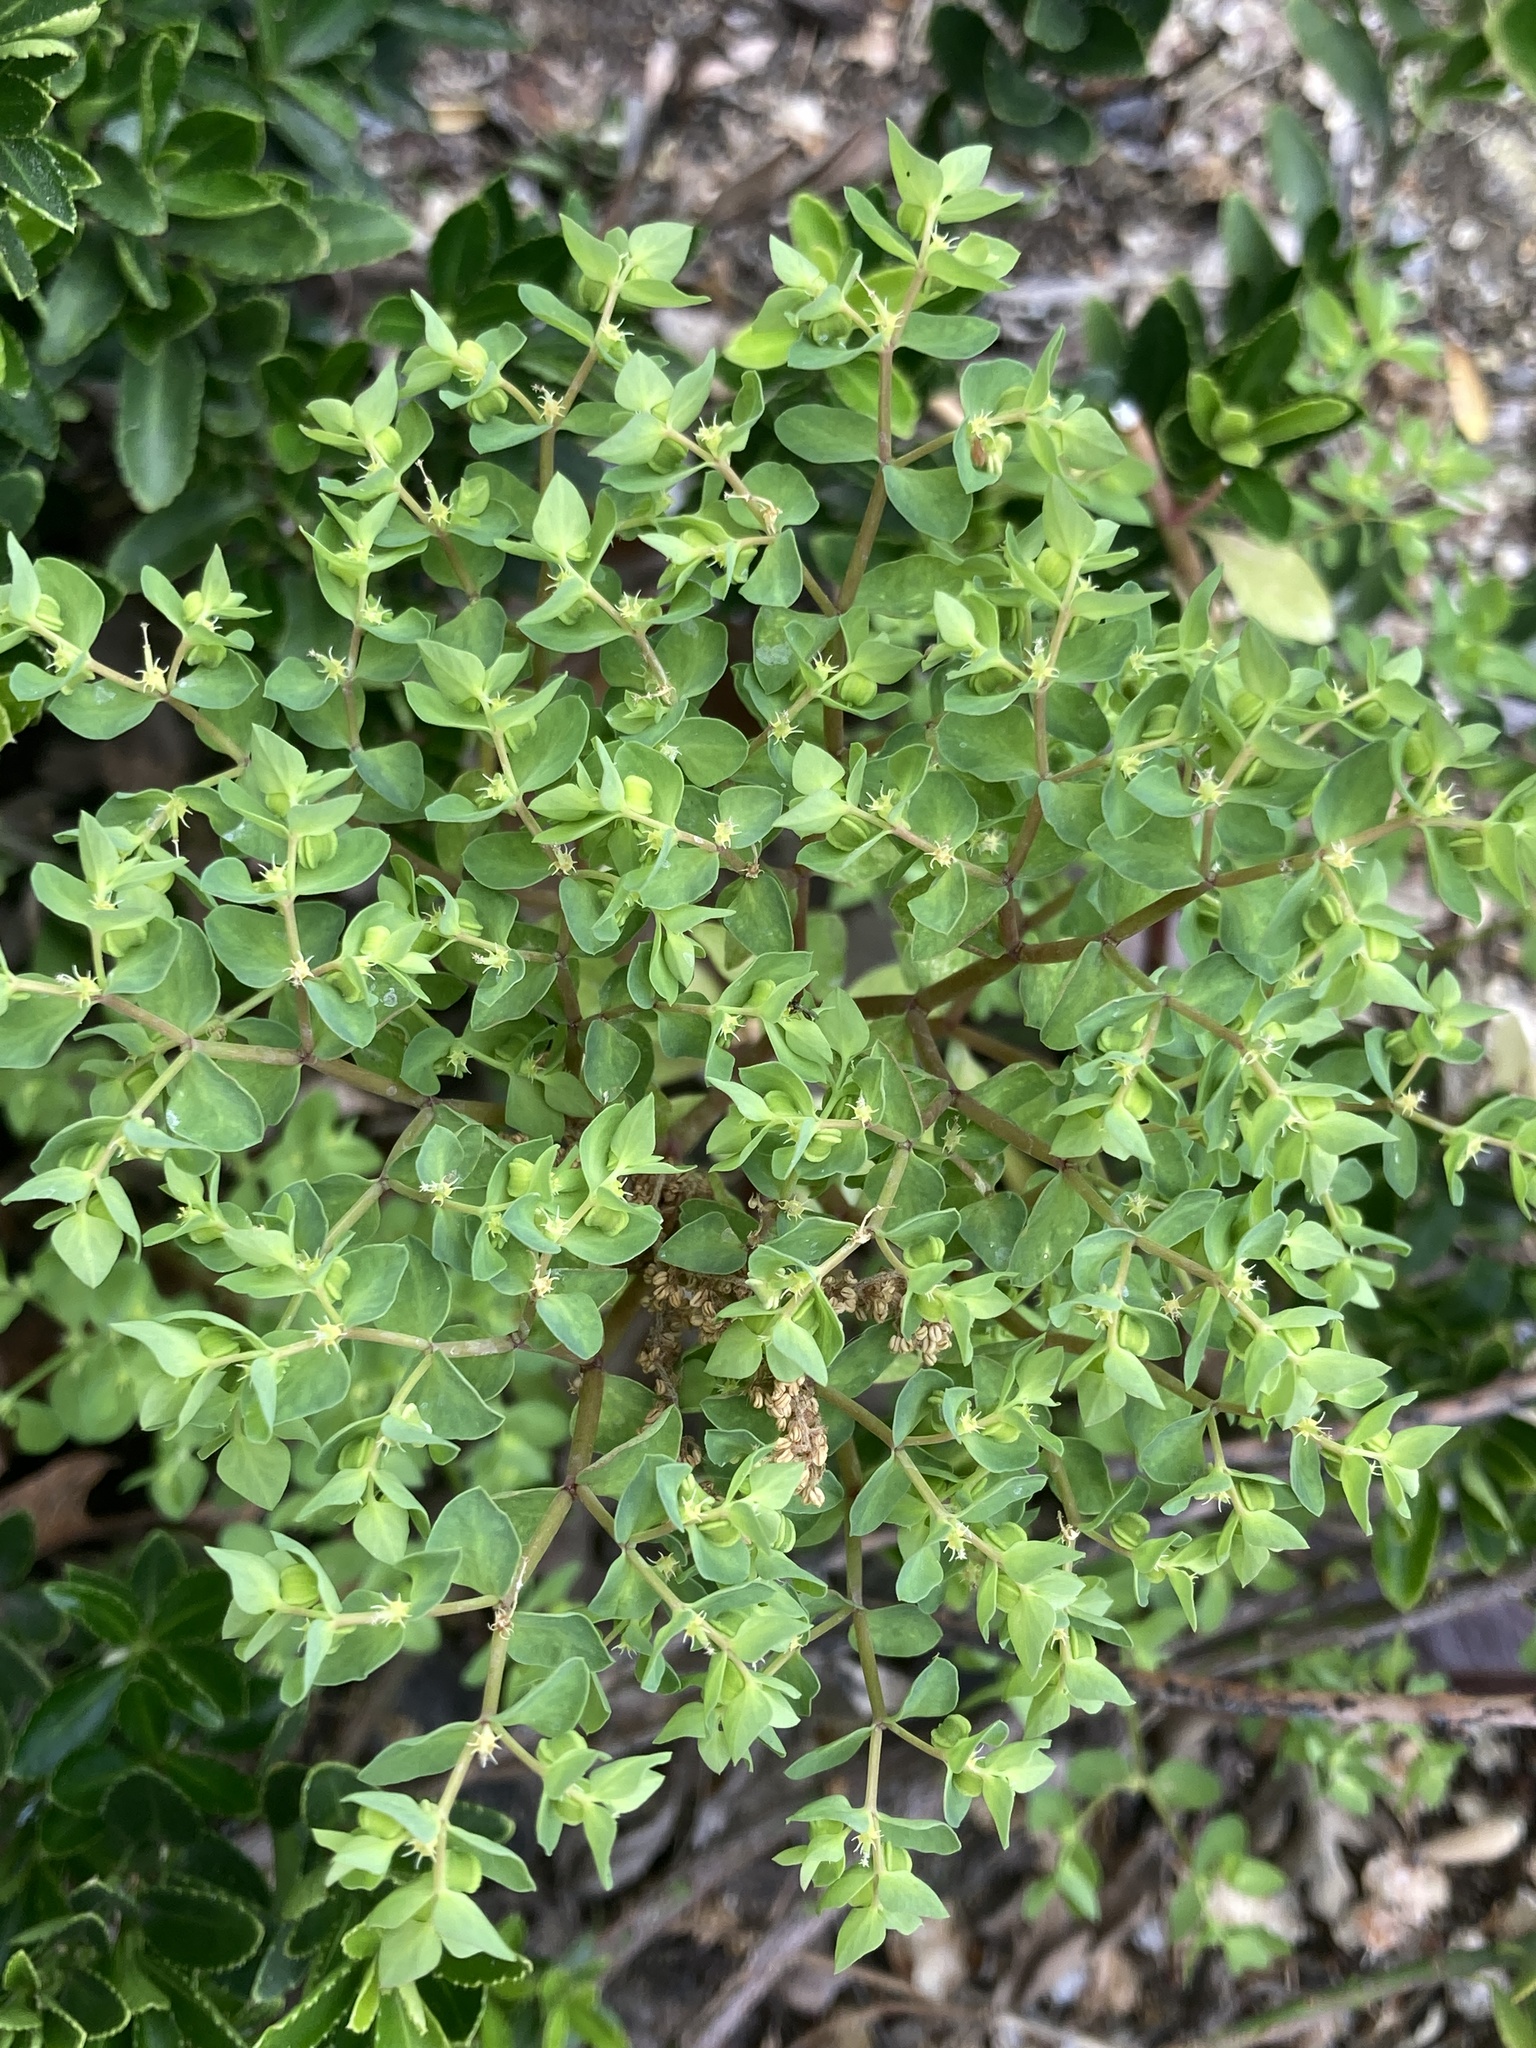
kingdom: Plantae
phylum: Tracheophyta
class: Magnoliopsida
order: Malpighiales
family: Euphorbiaceae
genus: Euphorbia
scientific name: Euphorbia peplus
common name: Petty spurge
